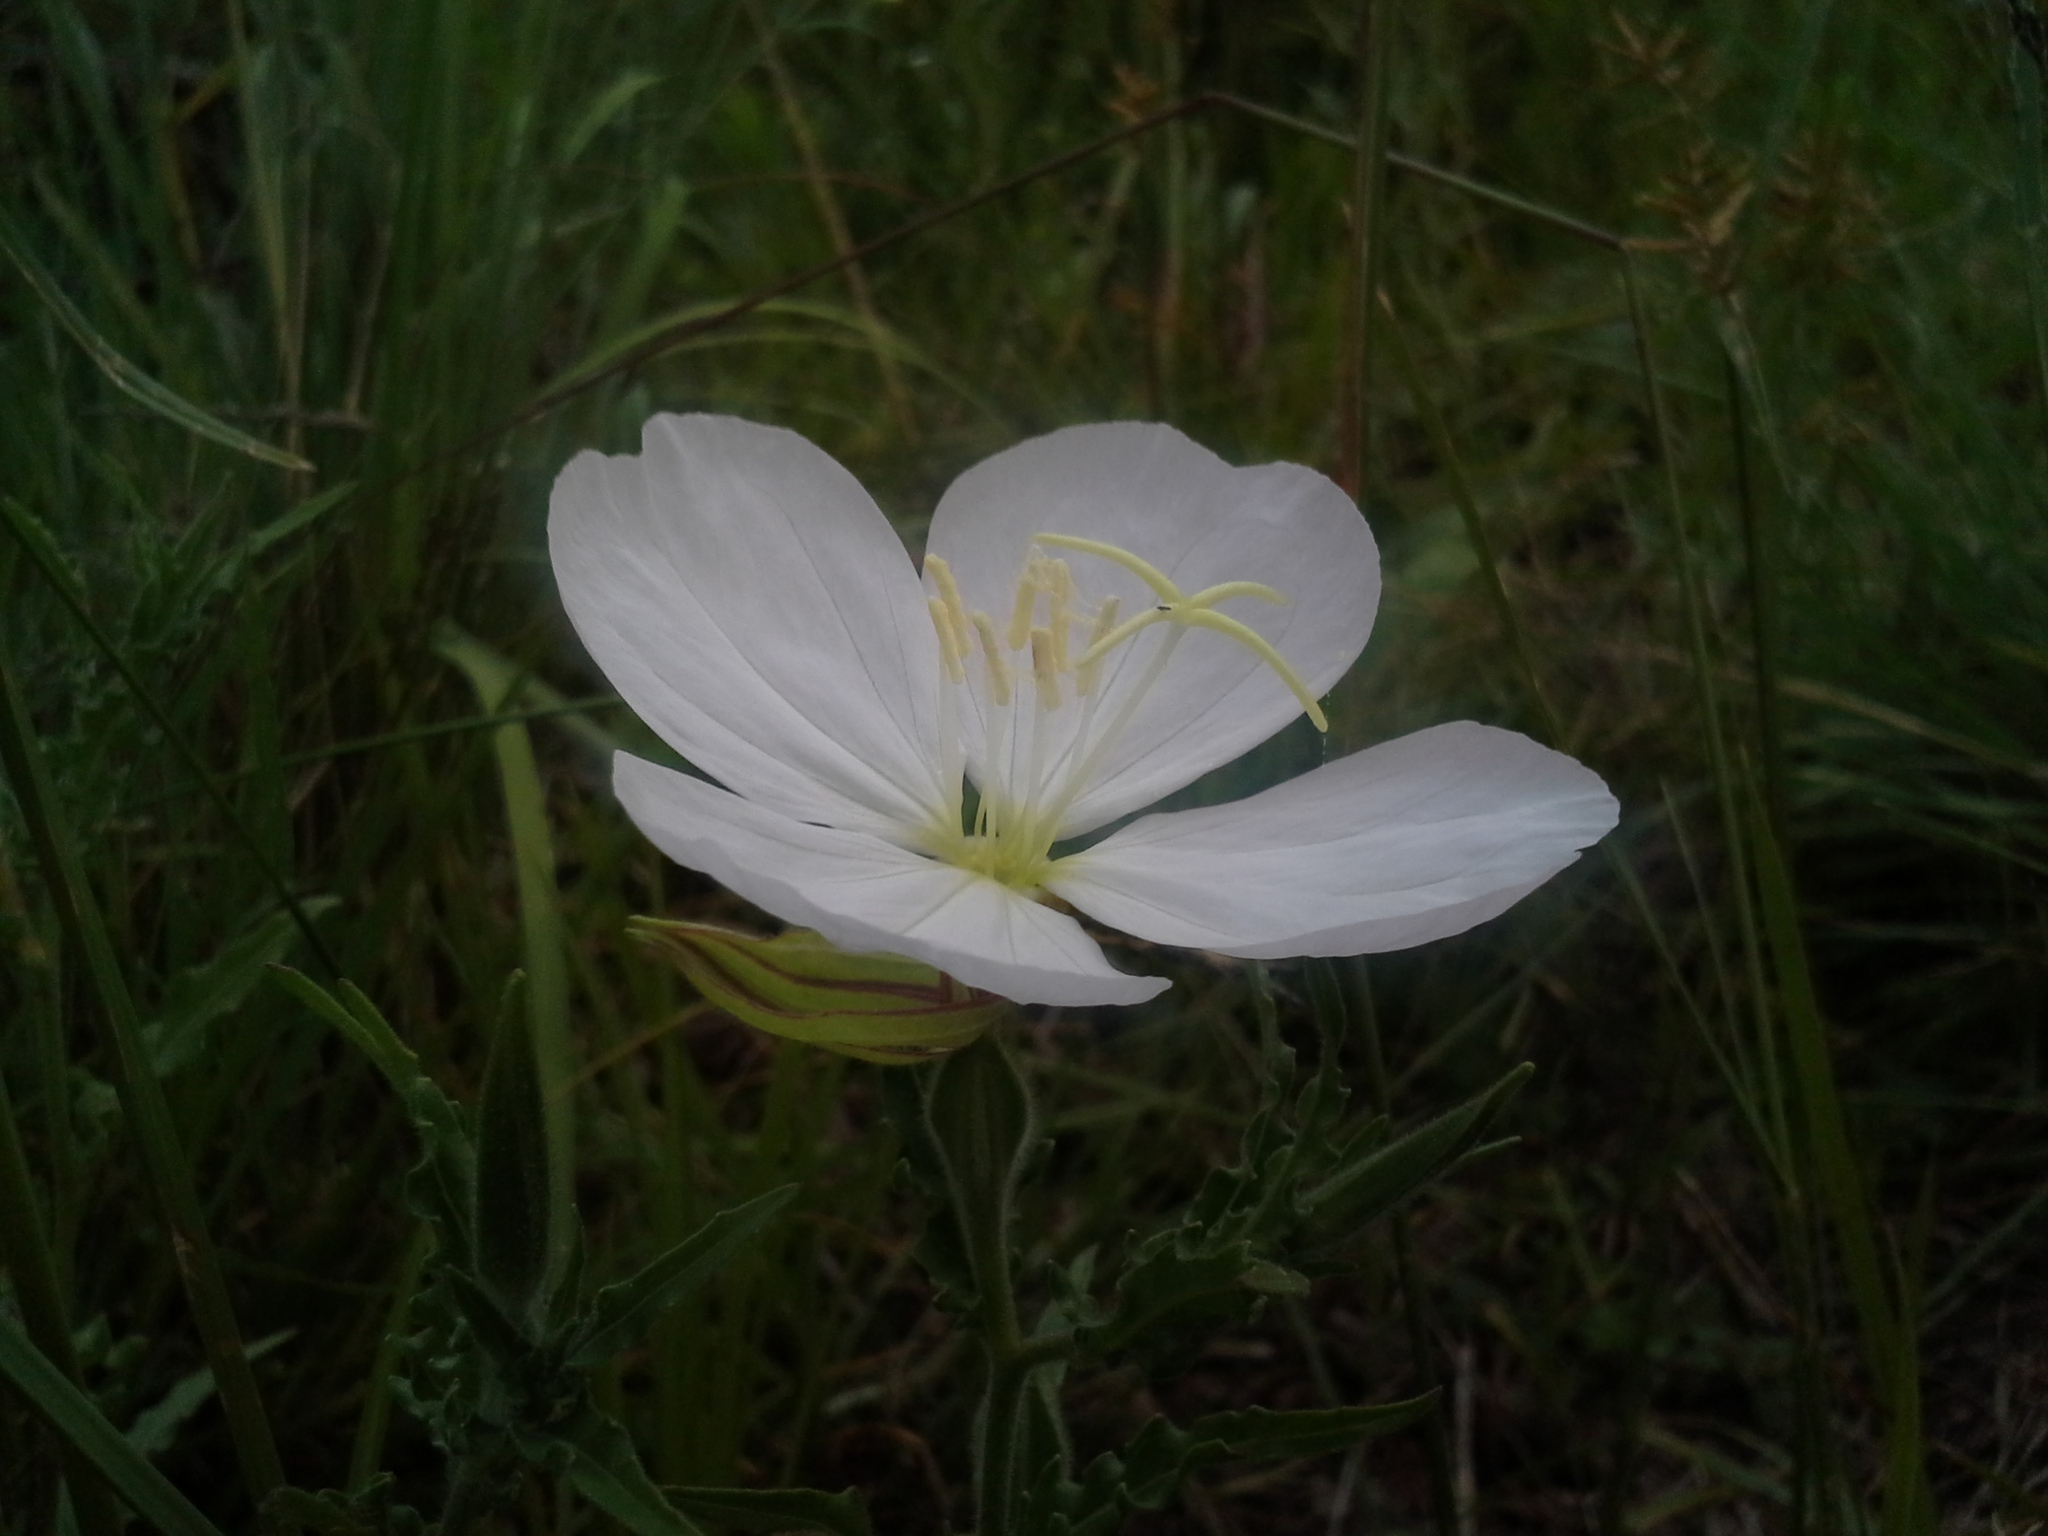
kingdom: Plantae
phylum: Tracheophyta
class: Magnoliopsida
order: Myrtales
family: Onagraceae
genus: Oenothera
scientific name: Oenothera tetraptera
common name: Four-wing evening-primrose
